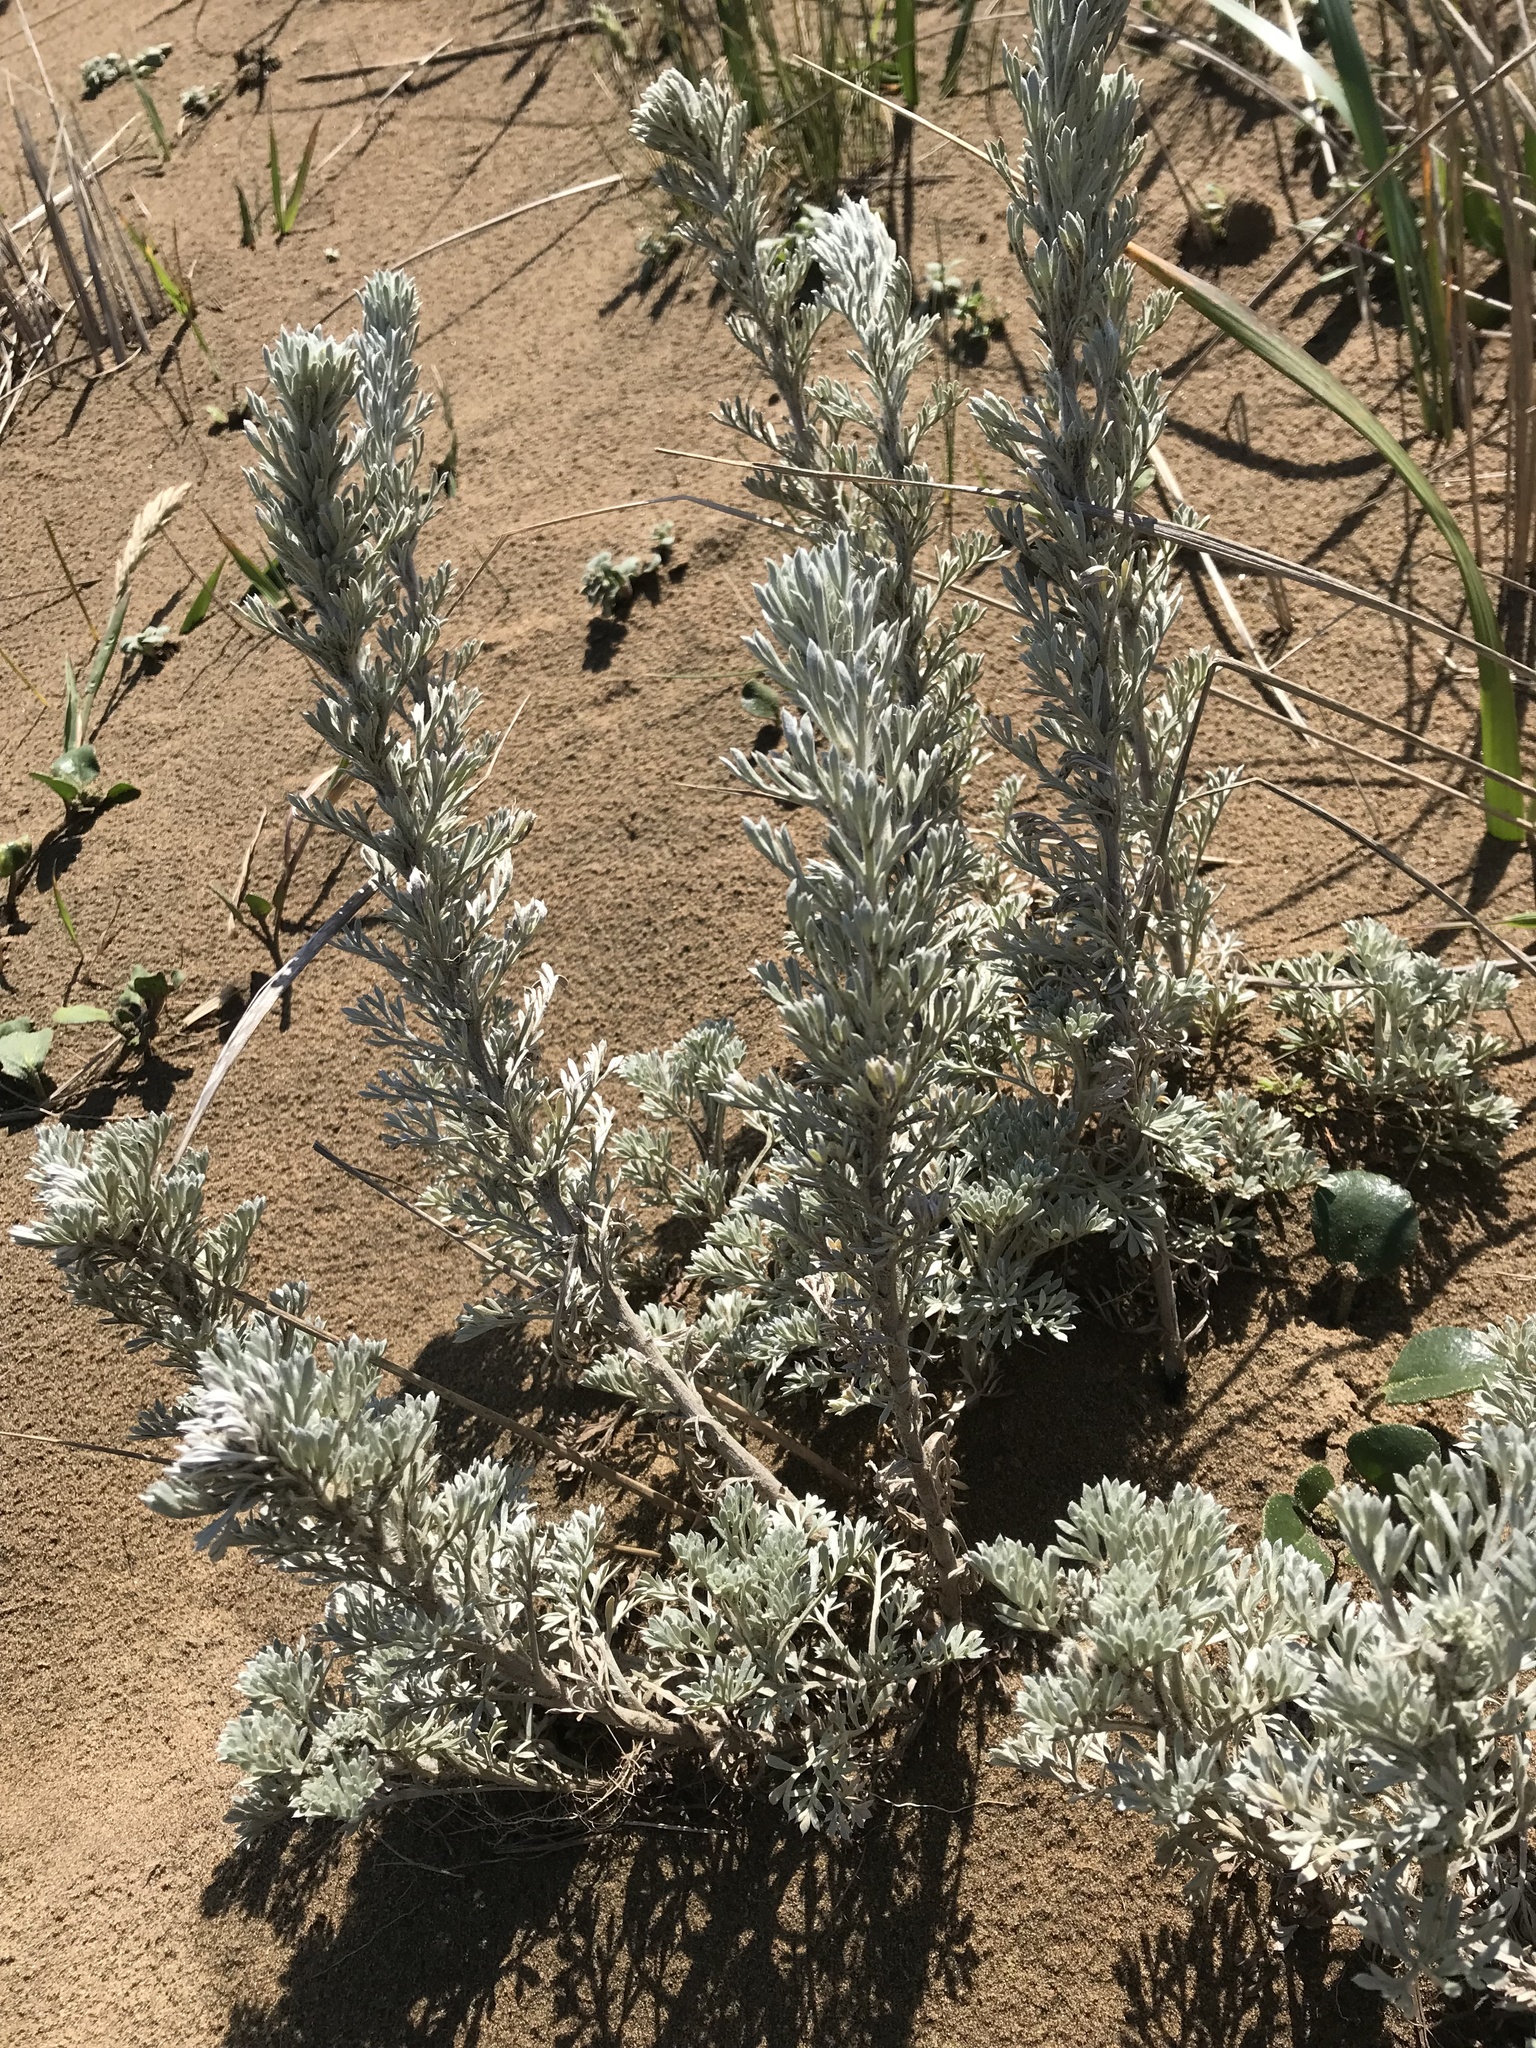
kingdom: Plantae
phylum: Tracheophyta
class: Magnoliopsida
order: Asterales
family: Asteraceae
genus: Artemisia
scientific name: Artemisia pycnocephala
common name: Coastal sagewort
